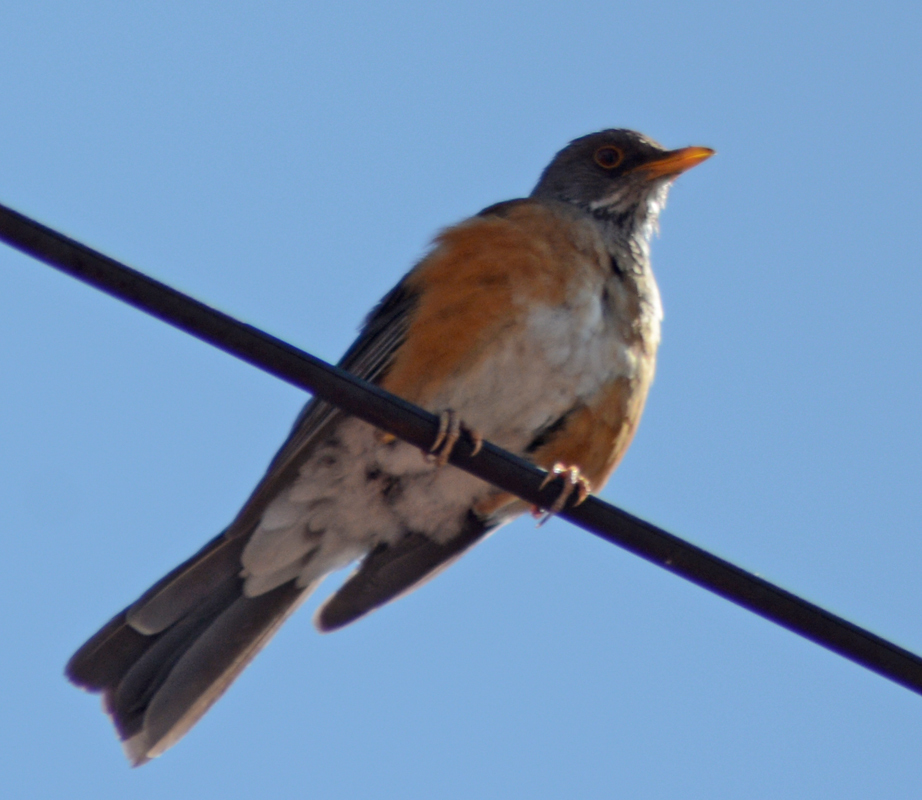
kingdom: Animalia
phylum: Chordata
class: Aves
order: Passeriformes
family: Turdidae
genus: Turdus
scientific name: Turdus rufopalliatus
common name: Rufous-backed robin
